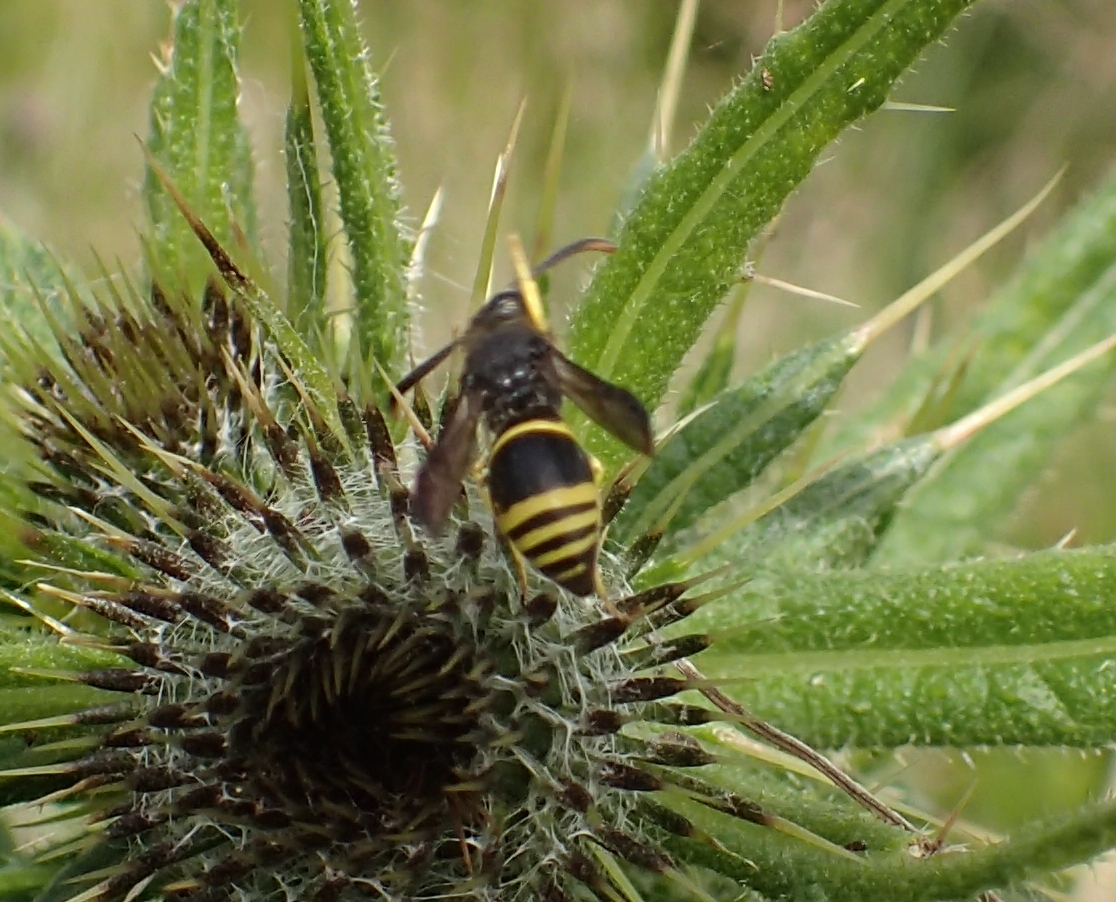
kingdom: Animalia
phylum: Arthropoda
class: Insecta
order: Hymenoptera
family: Vespidae
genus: Ancistrocerus
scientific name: Ancistrocerus gazella
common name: European tube wasp
